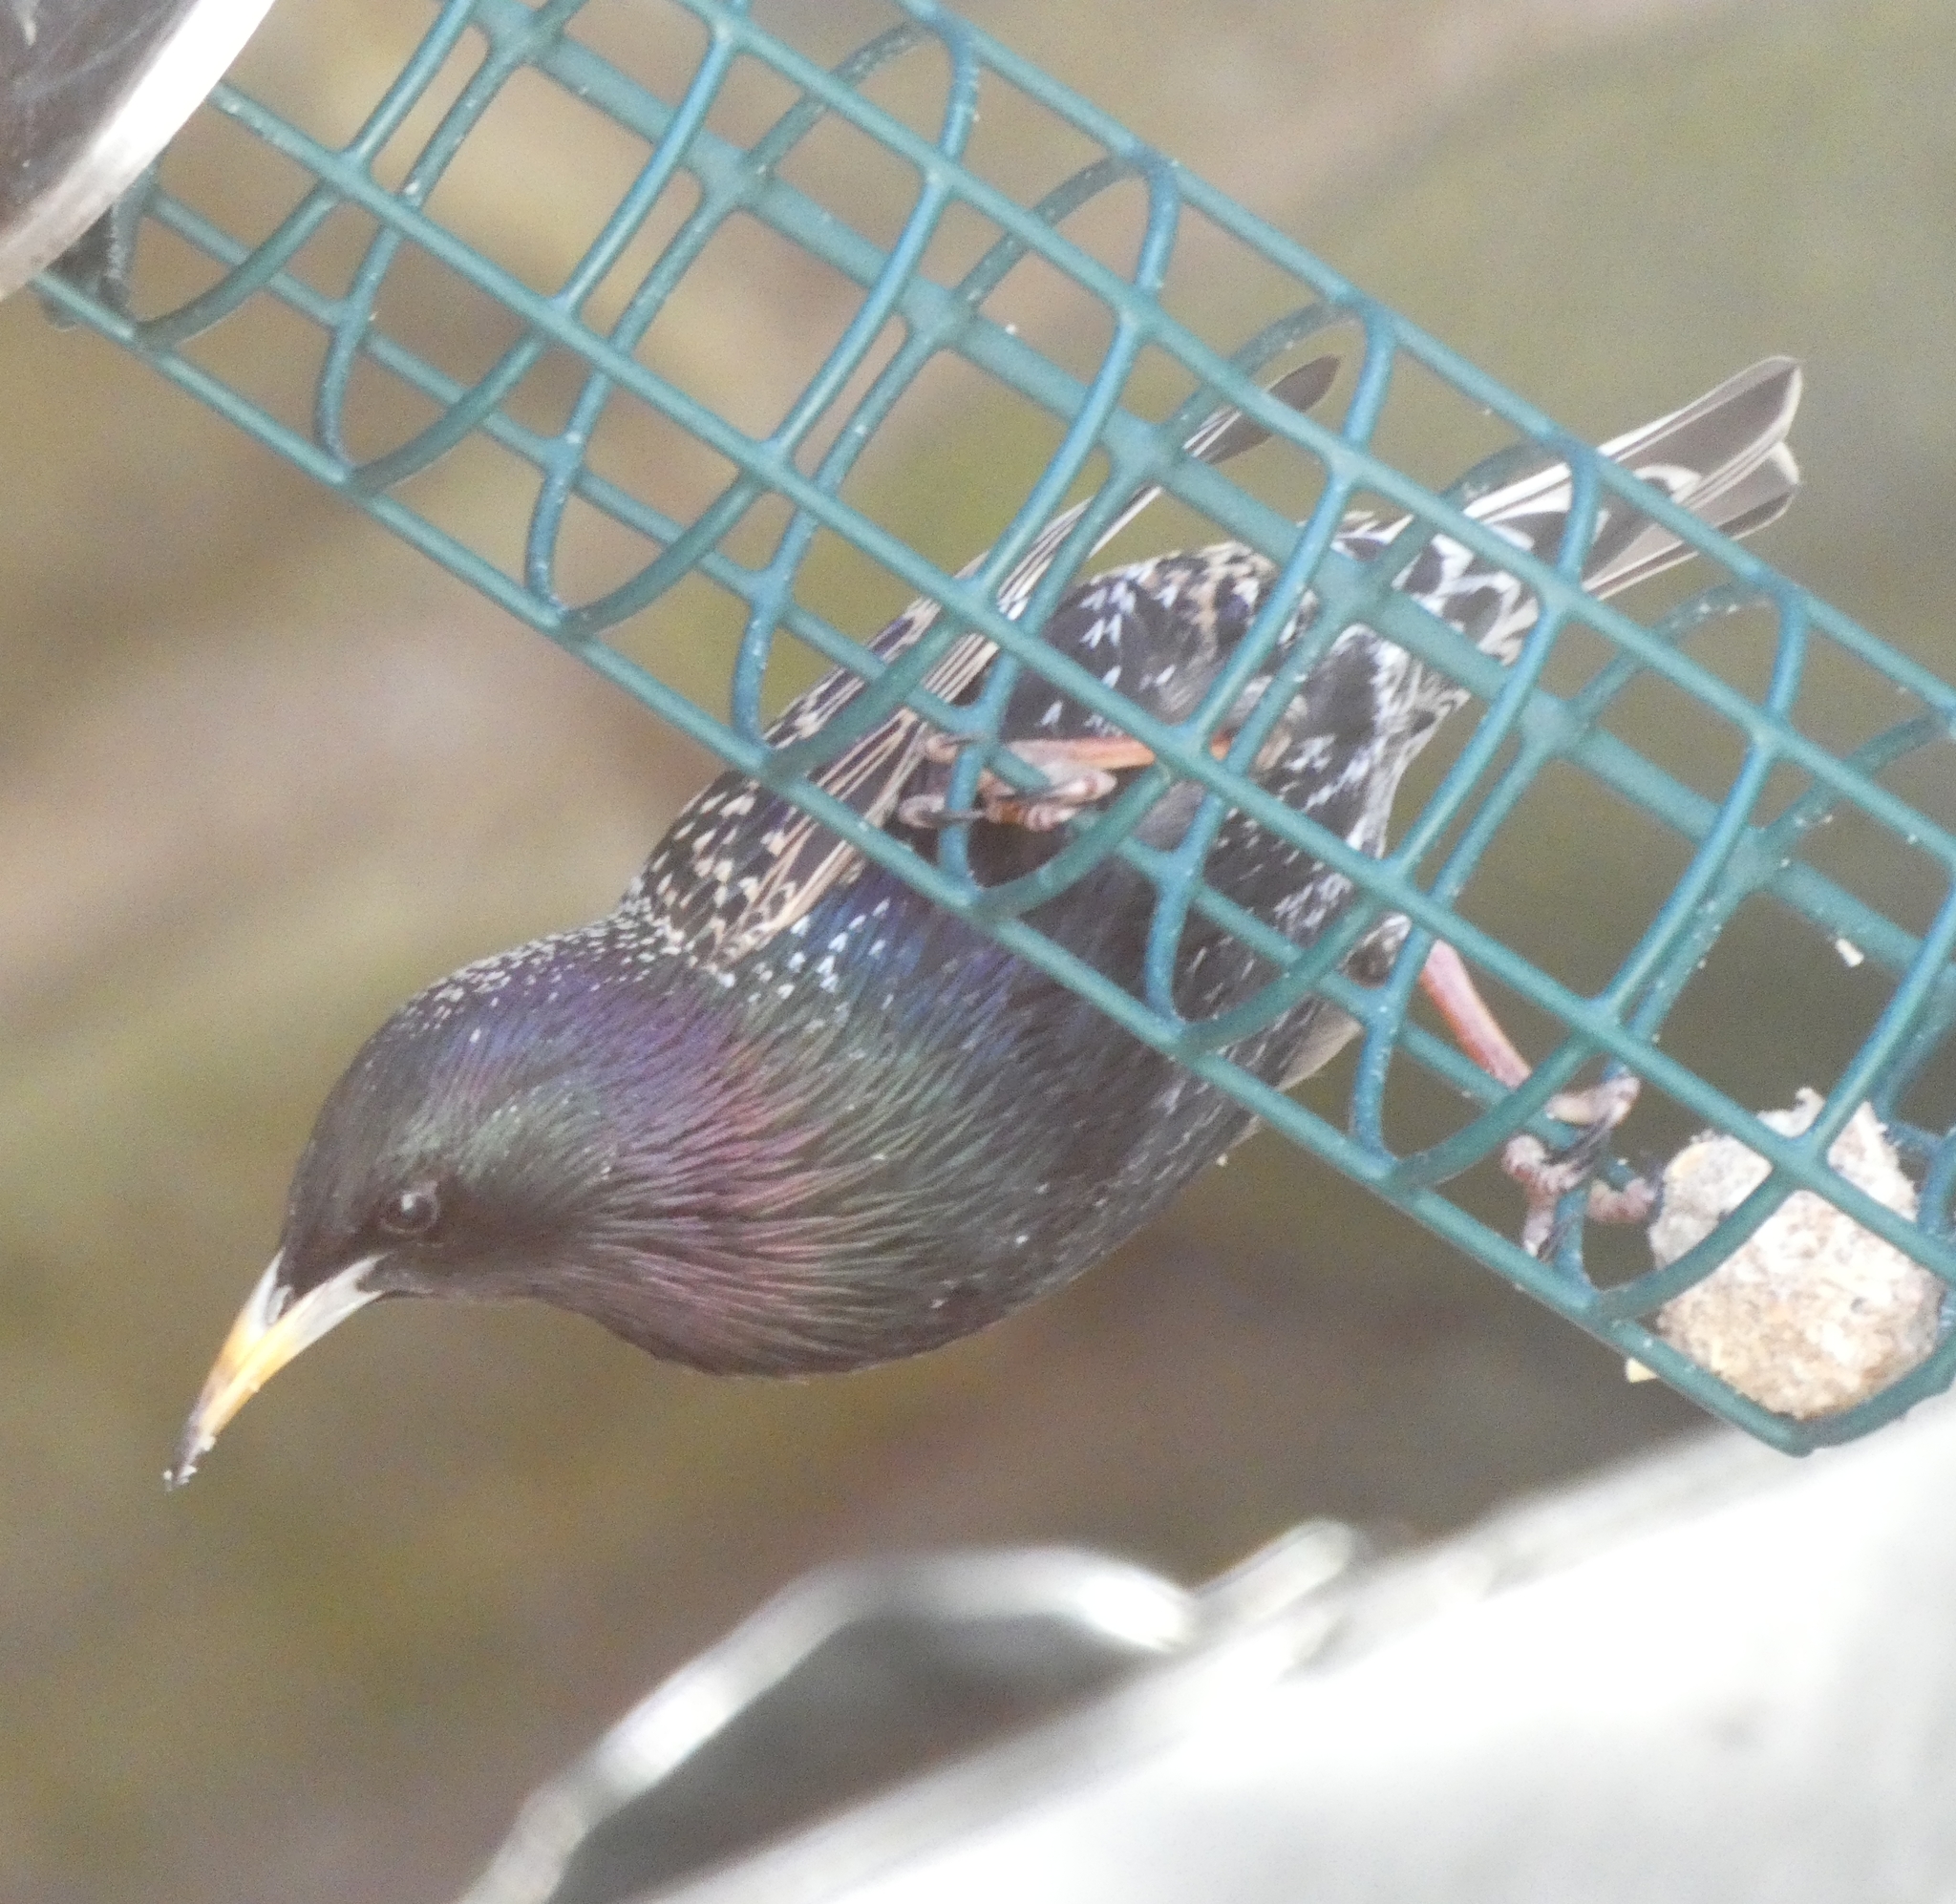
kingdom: Animalia
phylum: Chordata
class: Aves
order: Passeriformes
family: Sturnidae
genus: Sturnus
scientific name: Sturnus vulgaris
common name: Common starling
